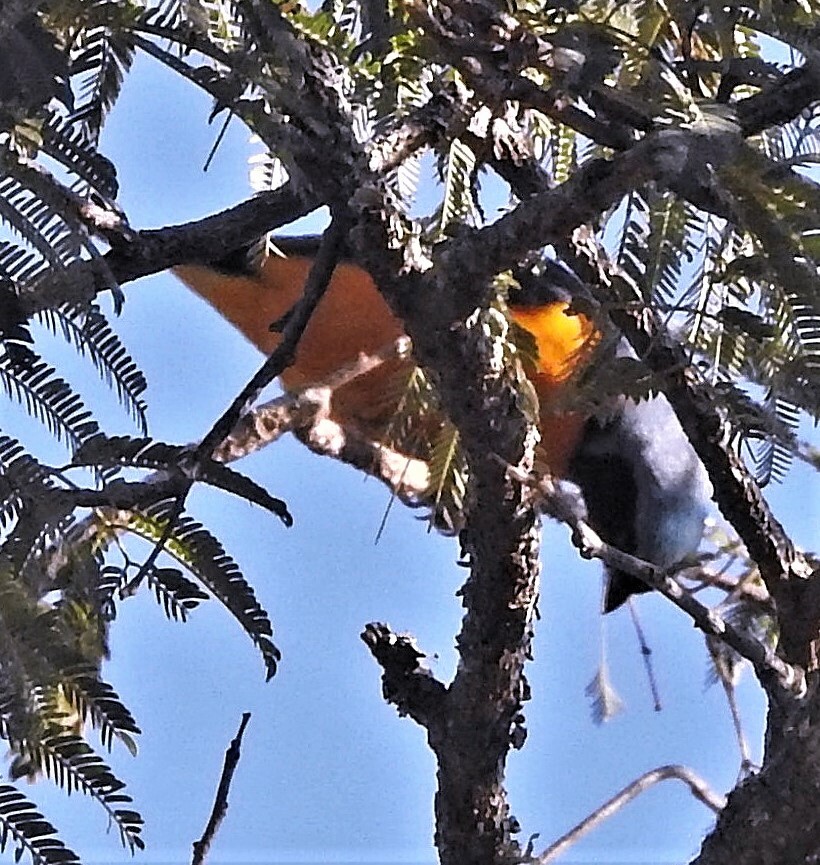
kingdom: Animalia
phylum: Chordata
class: Aves
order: Passeriformes
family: Fringillidae
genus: Euphonia
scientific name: Euphonia cyanocephala
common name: Golden-rumped euphonia
